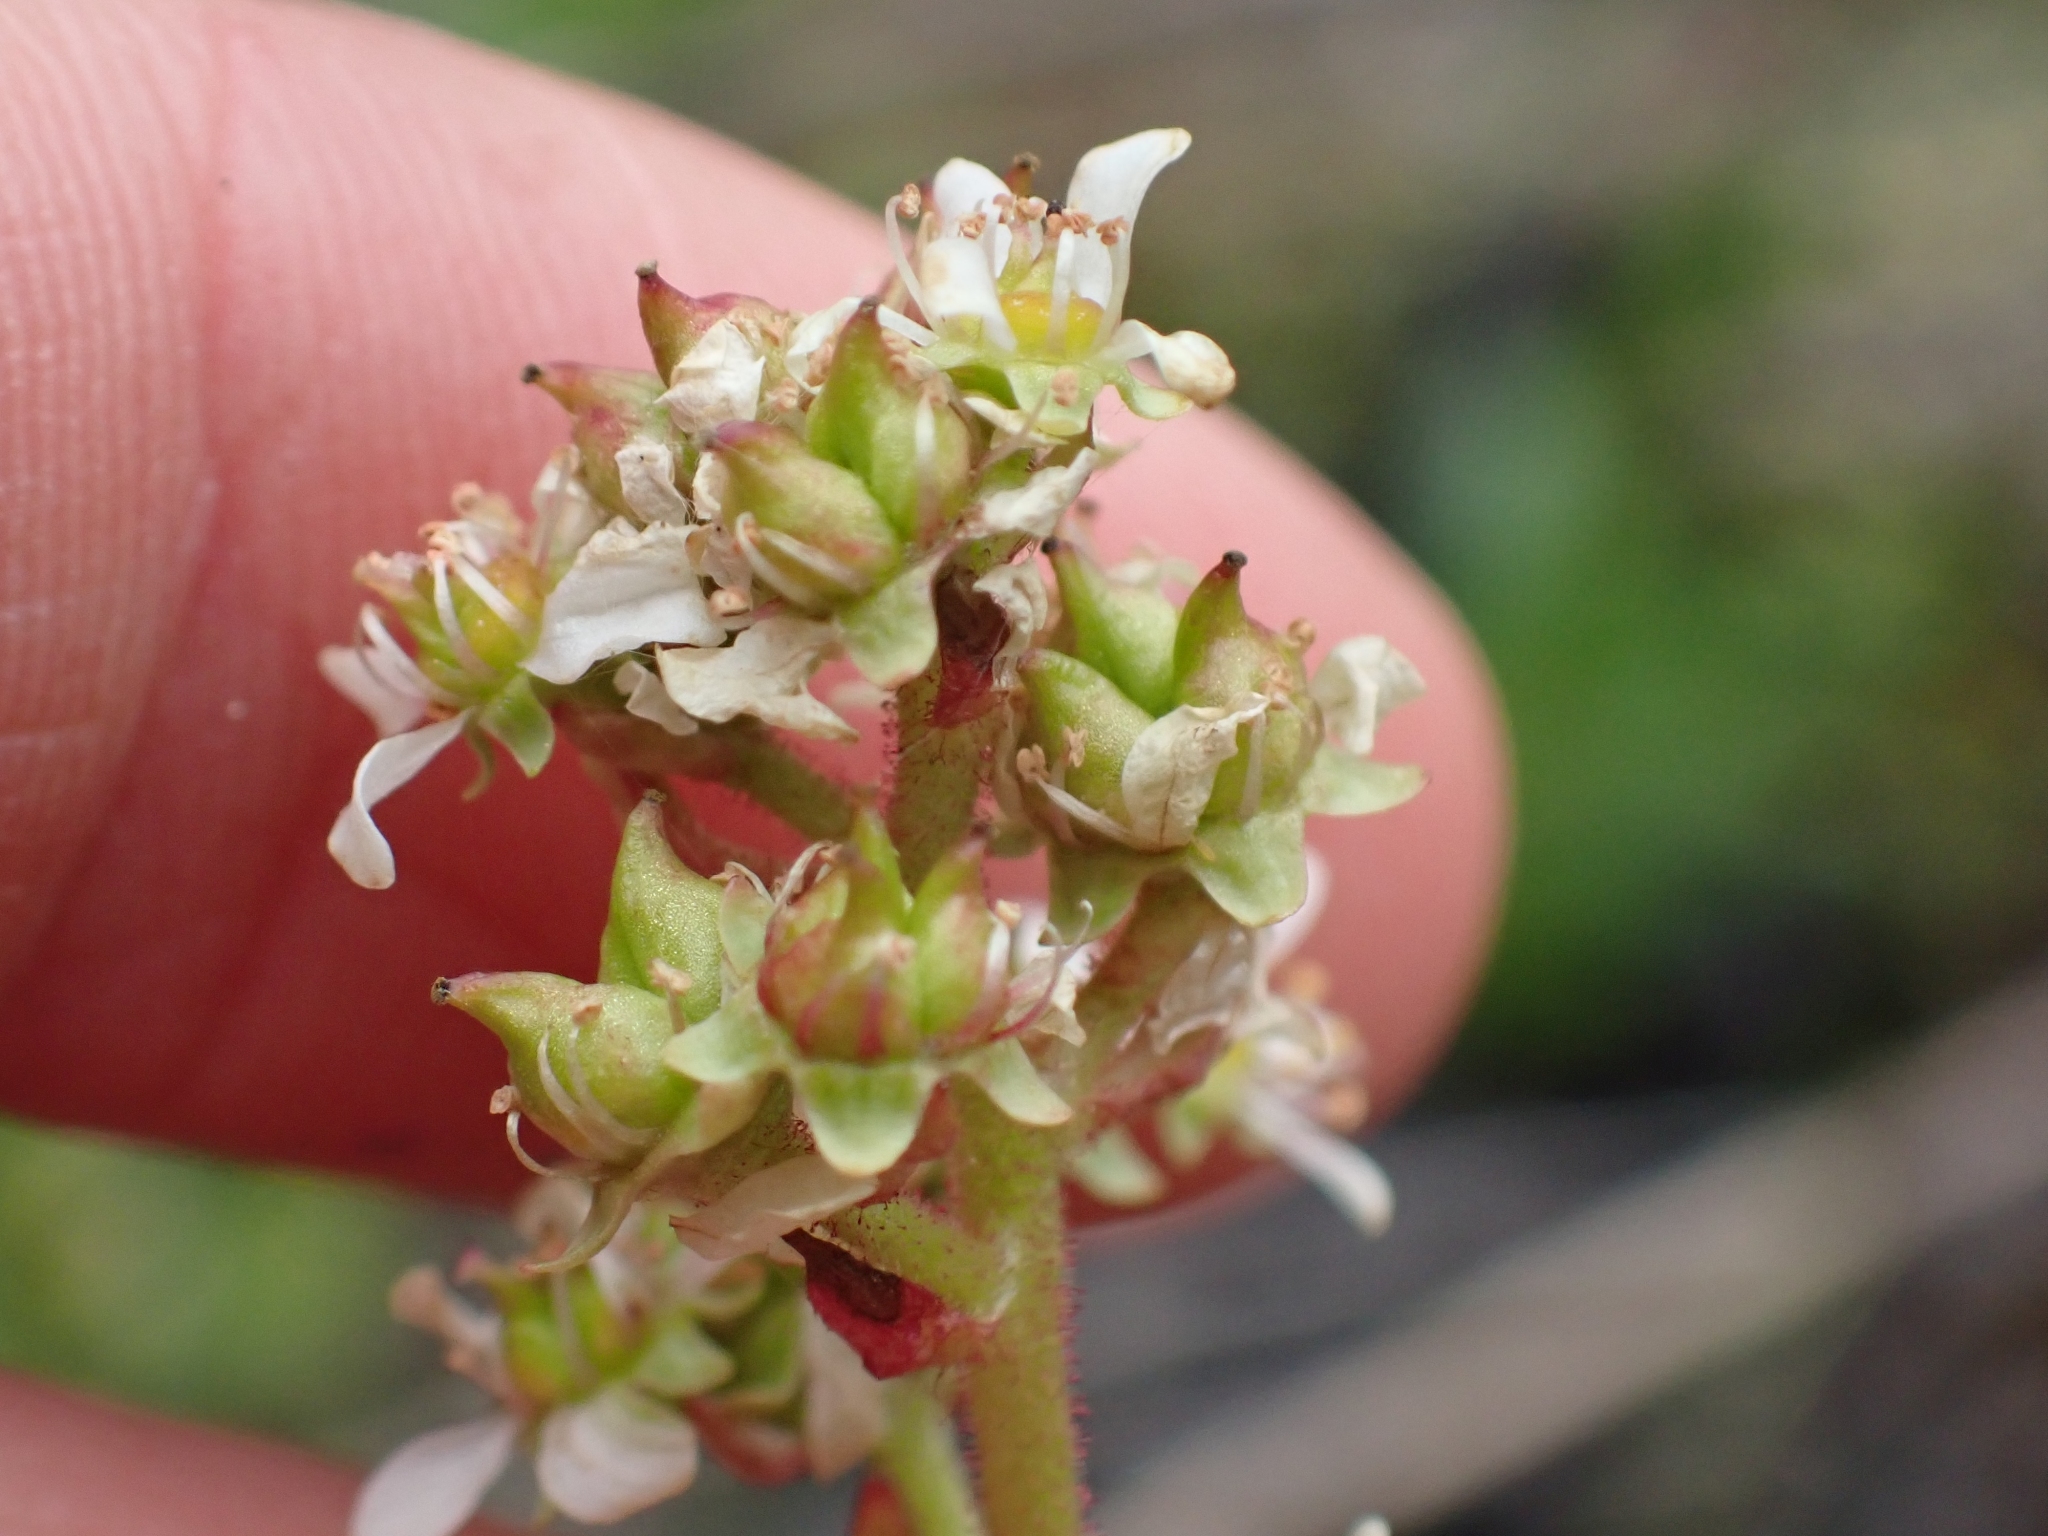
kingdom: Plantae
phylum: Tracheophyta
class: Magnoliopsida
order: Saxifragales
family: Saxifragaceae
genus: Micranthes
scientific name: Micranthes integrifolia
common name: Wholeleaf saxifrage
